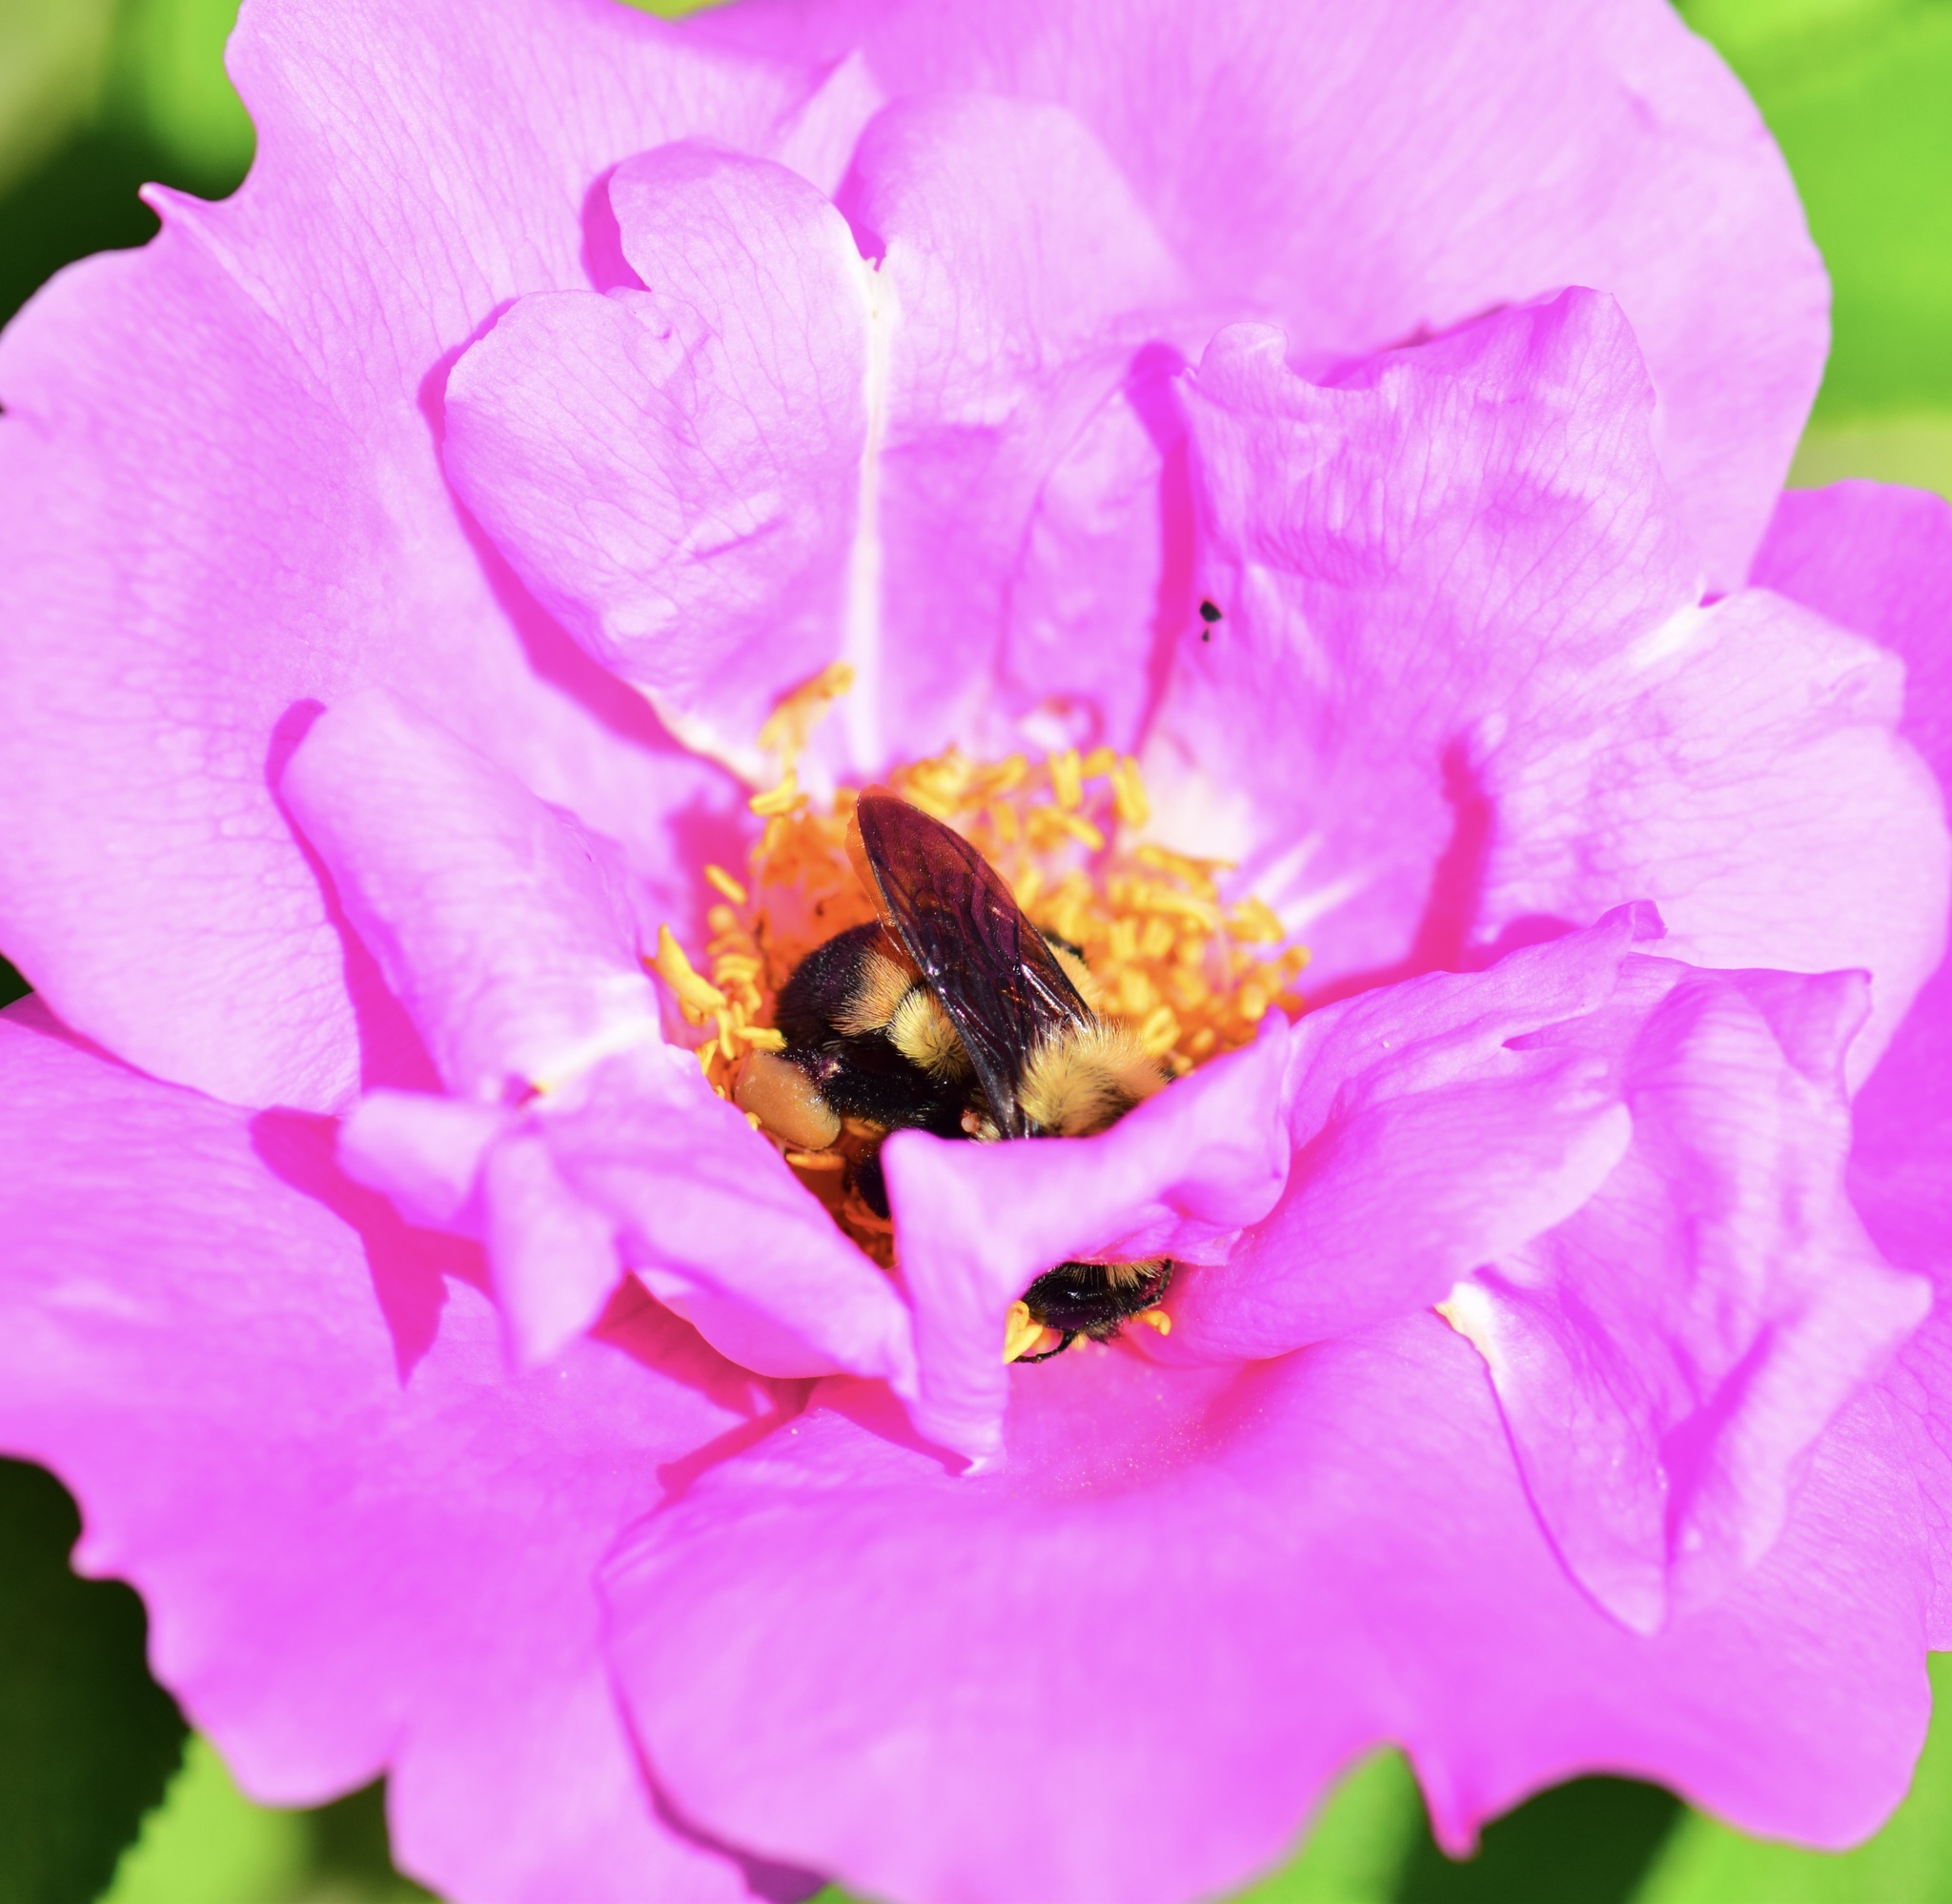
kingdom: Animalia
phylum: Arthropoda
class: Insecta
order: Hymenoptera
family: Apidae
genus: Bombus
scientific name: Bombus griseocollis
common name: Brown-belted bumble bee
